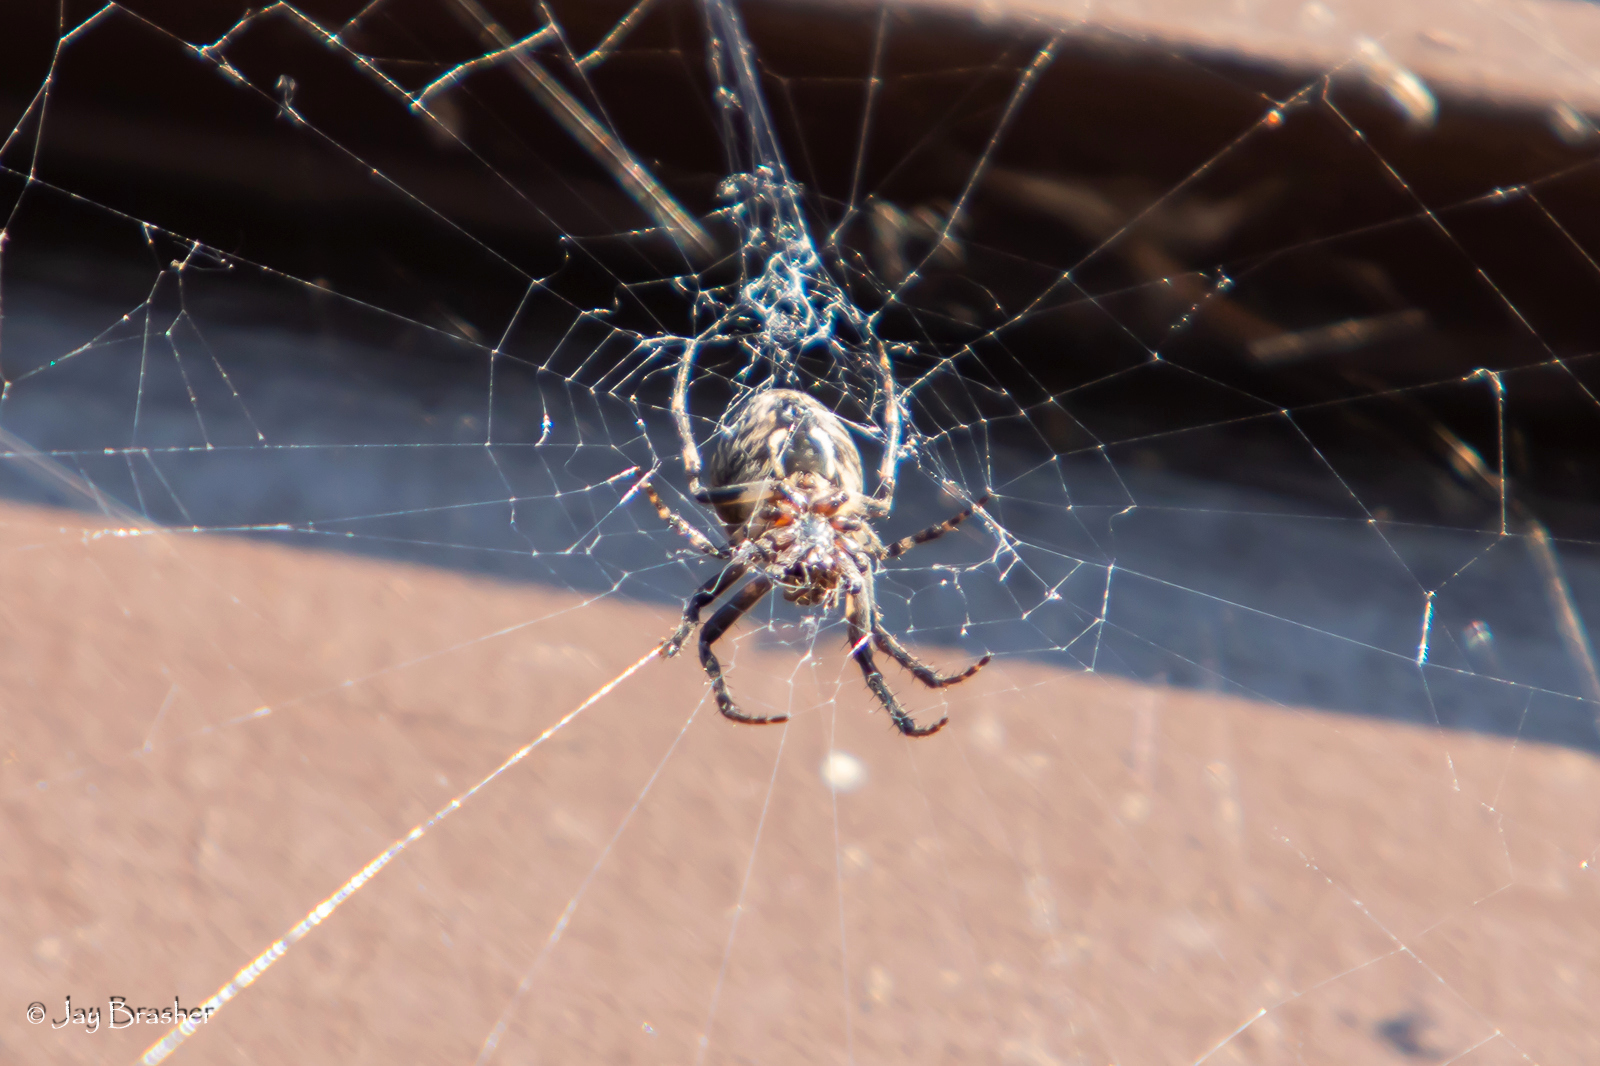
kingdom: Animalia
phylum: Arthropoda
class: Arachnida
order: Araneae
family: Araneidae
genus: Larinioides
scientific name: Larinioides sclopetarius
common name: Bridge orbweaver
